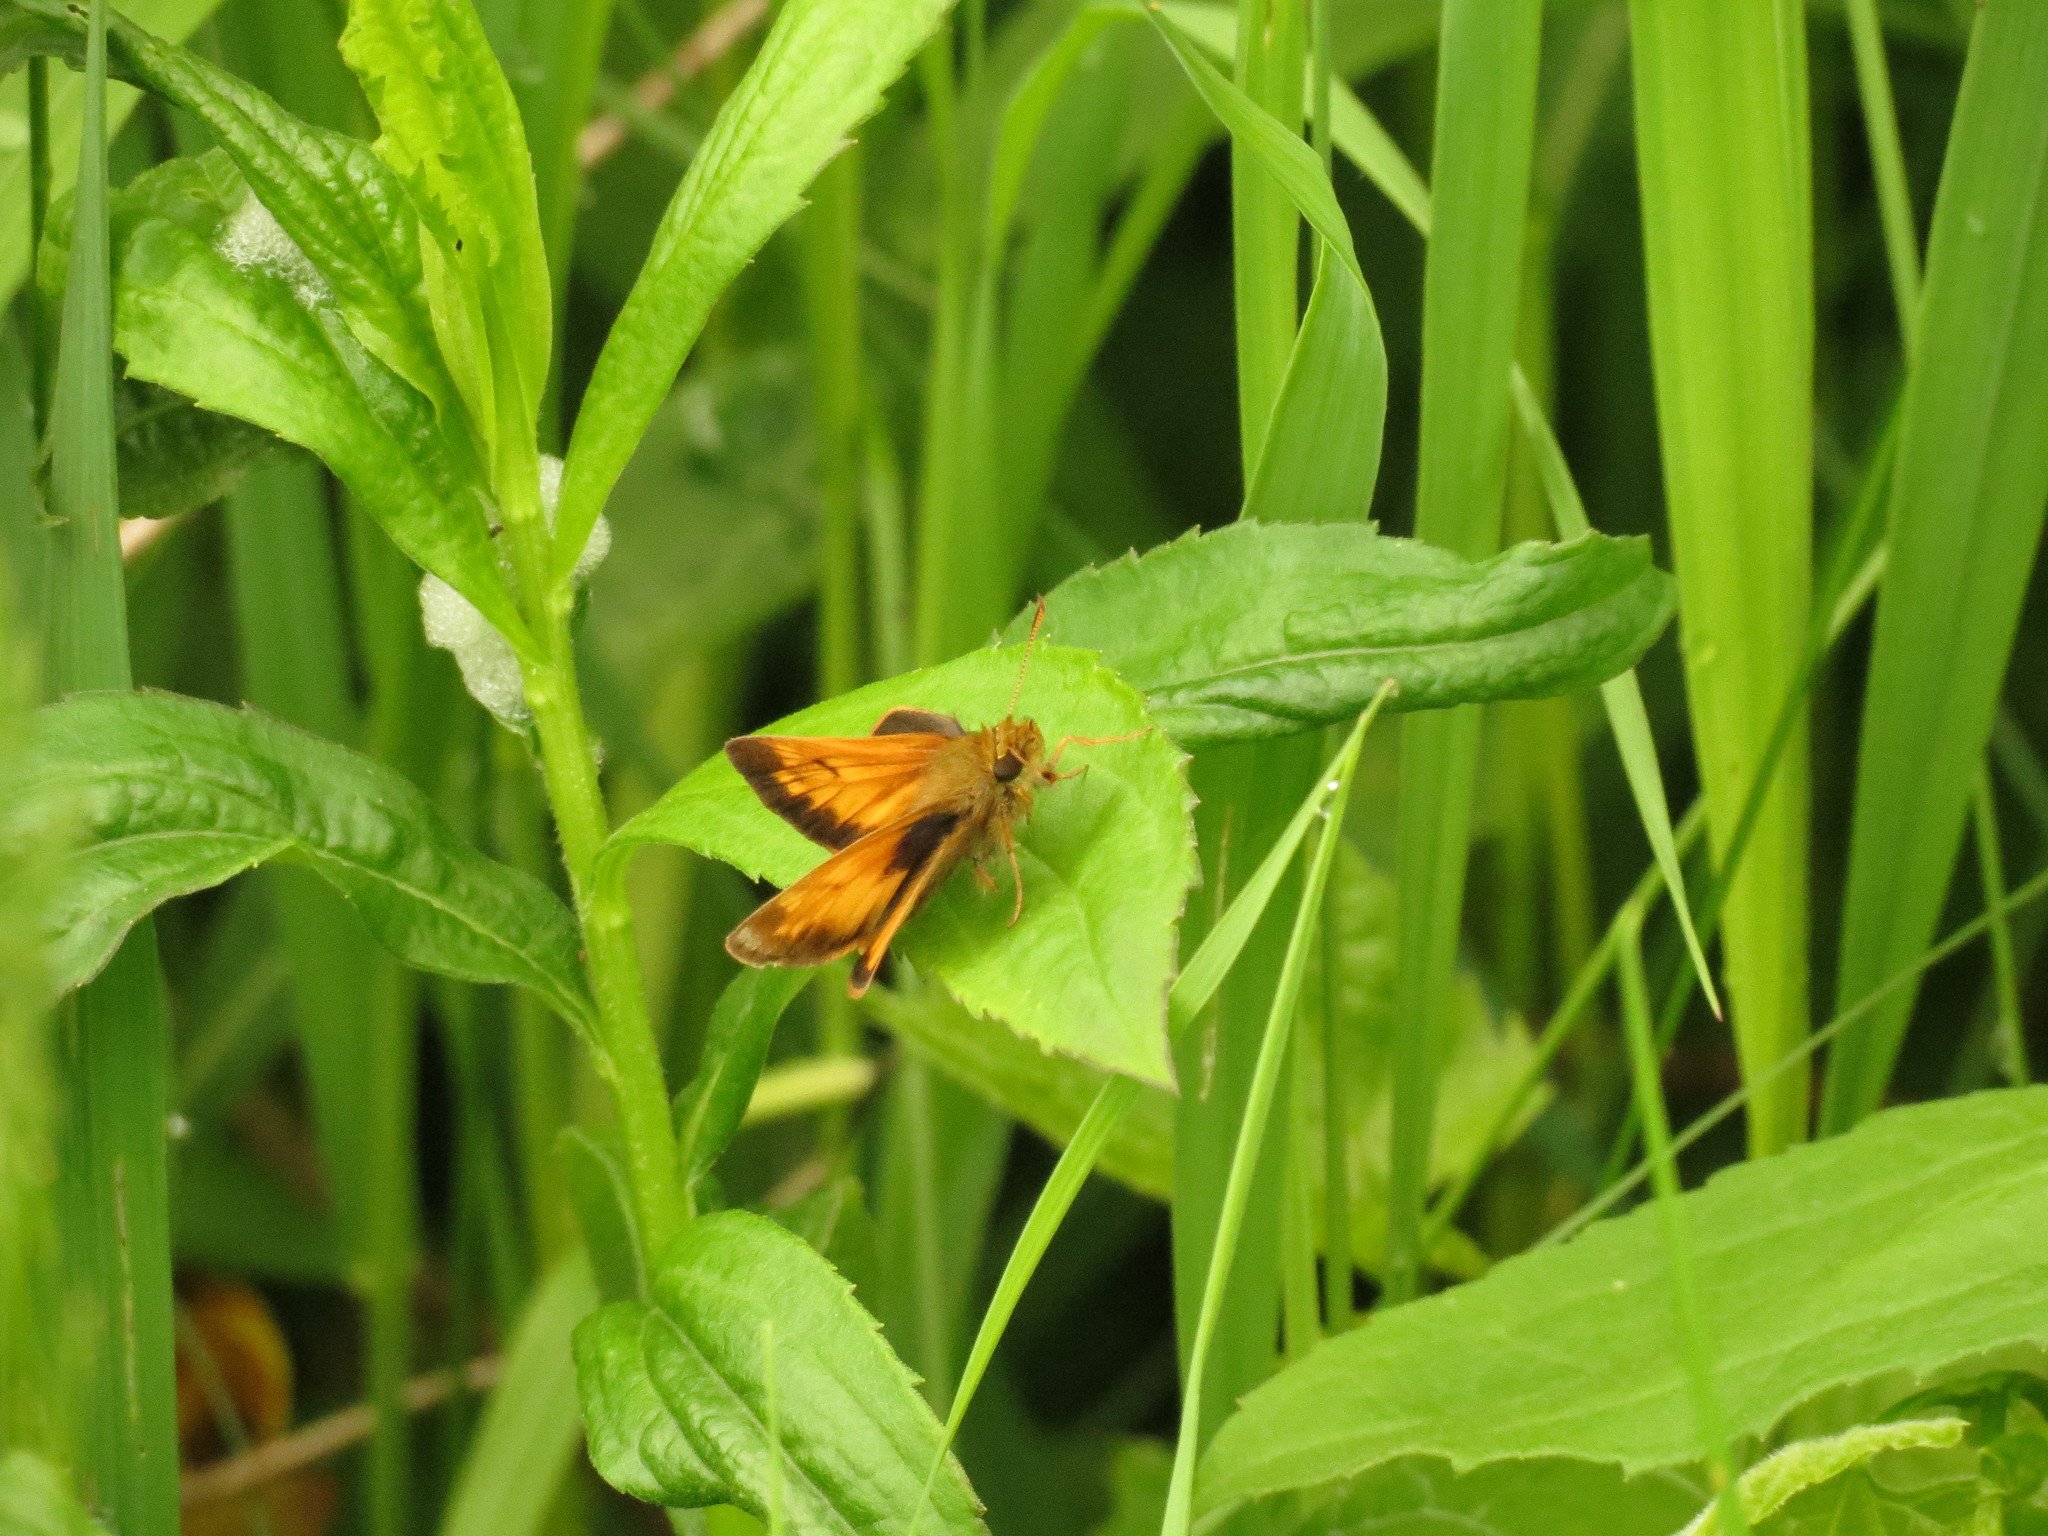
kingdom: Animalia
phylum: Arthropoda
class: Insecta
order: Lepidoptera
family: Hesperiidae
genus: Lon
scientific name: Lon hobomok
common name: Hobomok skipper
